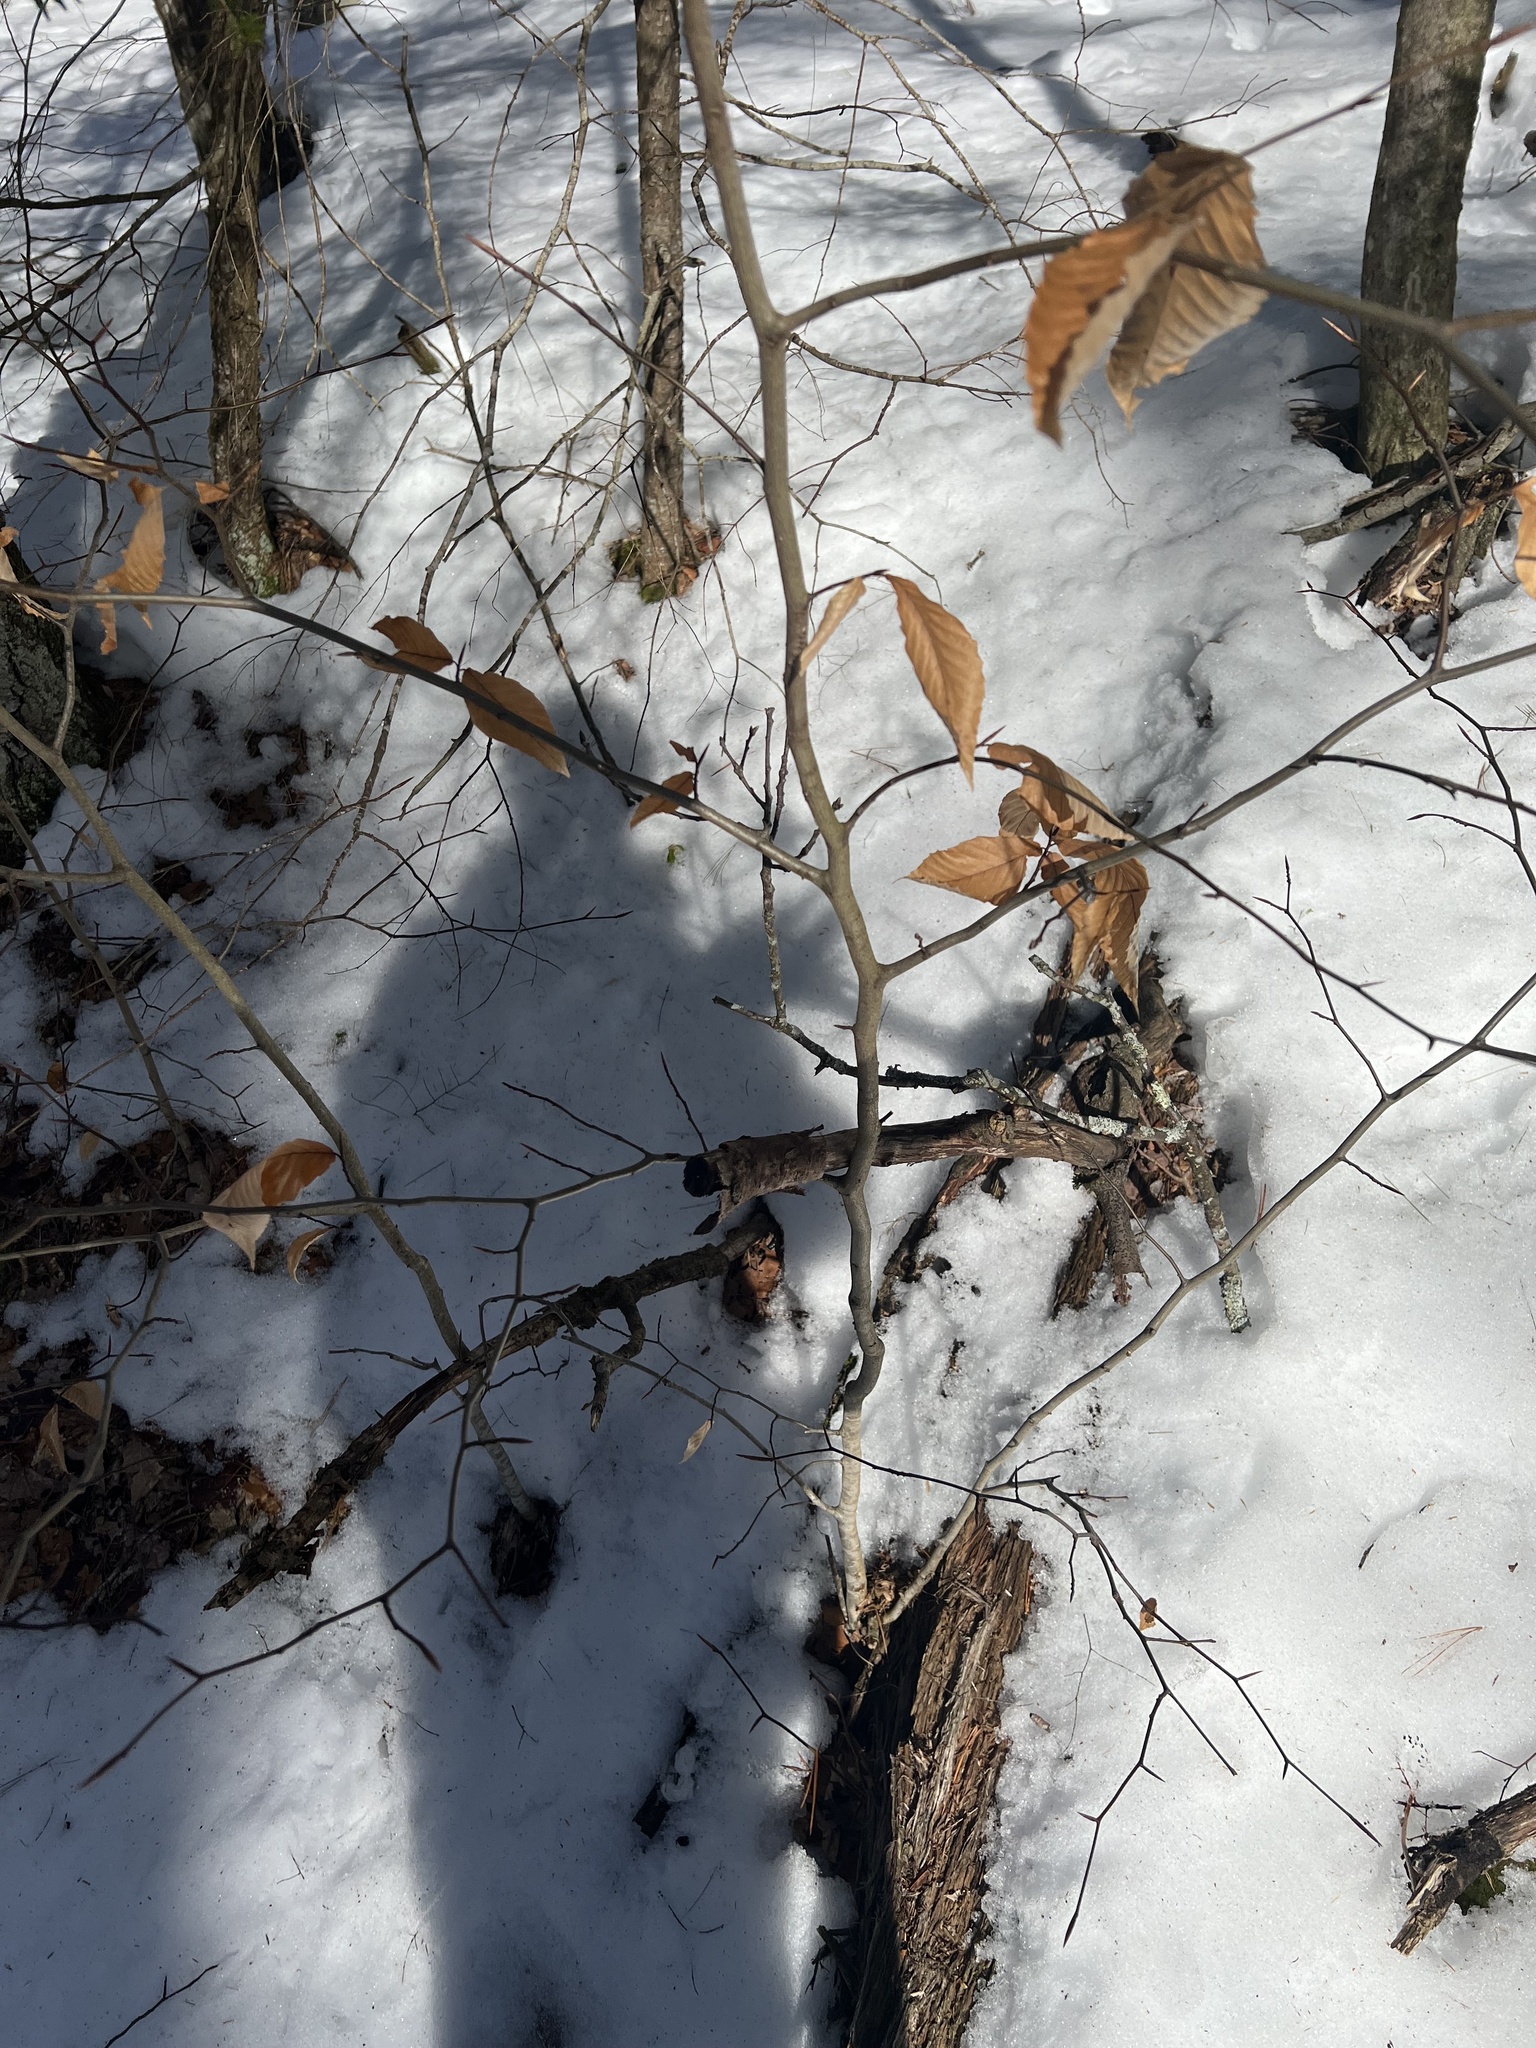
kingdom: Plantae
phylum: Tracheophyta
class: Magnoliopsida
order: Fagales
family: Fagaceae
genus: Fagus
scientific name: Fagus grandifolia
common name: American beech
